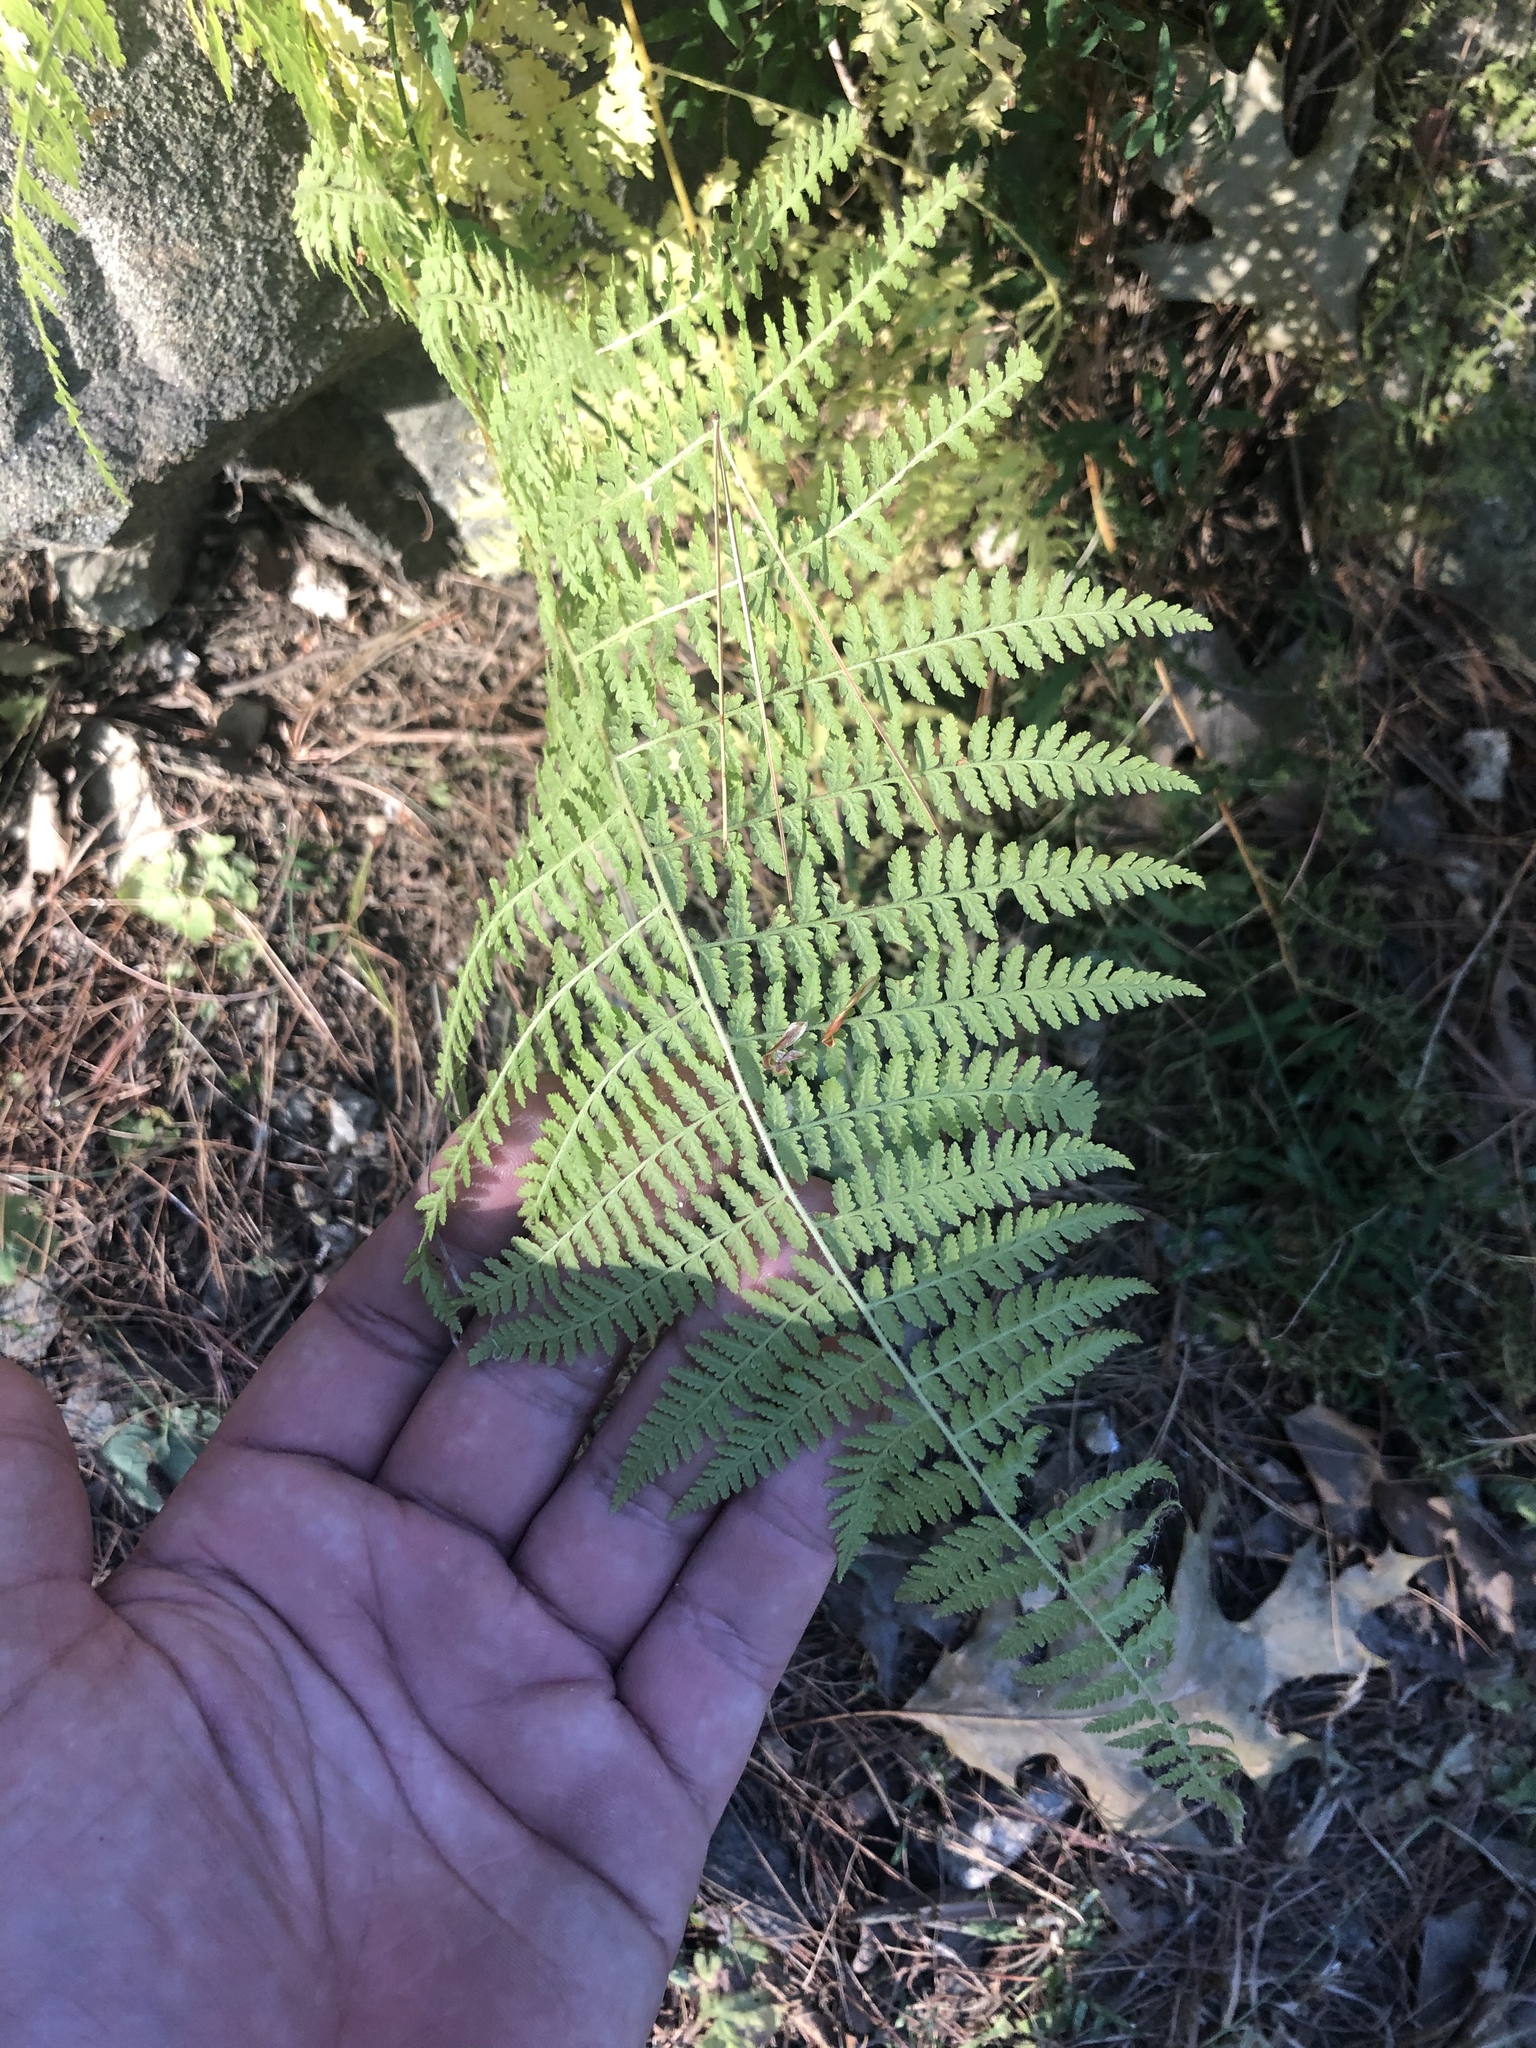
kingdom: Plantae
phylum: Tracheophyta
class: Polypodiopsida
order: Polypodiales
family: Dennstaedtiaceae
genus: Sitobolium
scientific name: Sitobolium punctilobum
